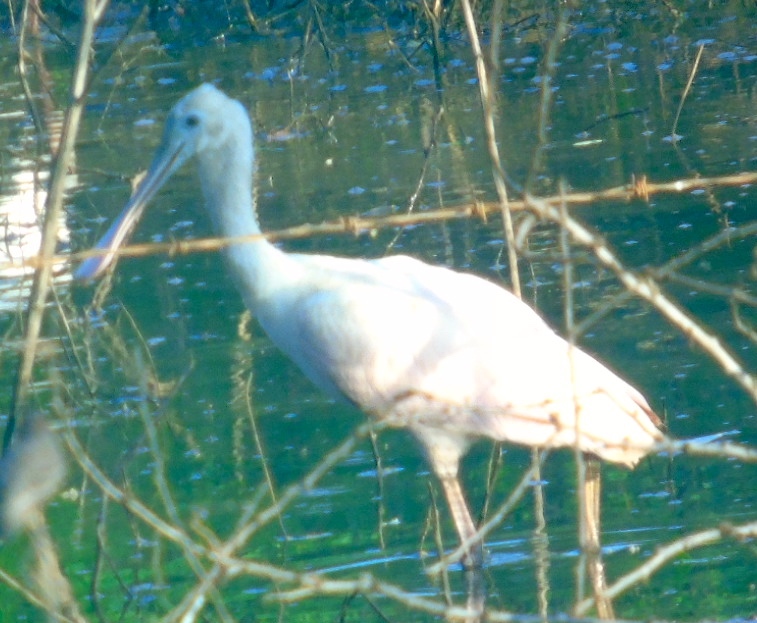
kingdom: Animalia
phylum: Chordata
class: Aves
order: Pelecaniformes
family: Threskiornithidae
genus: Platalea
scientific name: Platalea ajaja
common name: Roseate spoonbill
